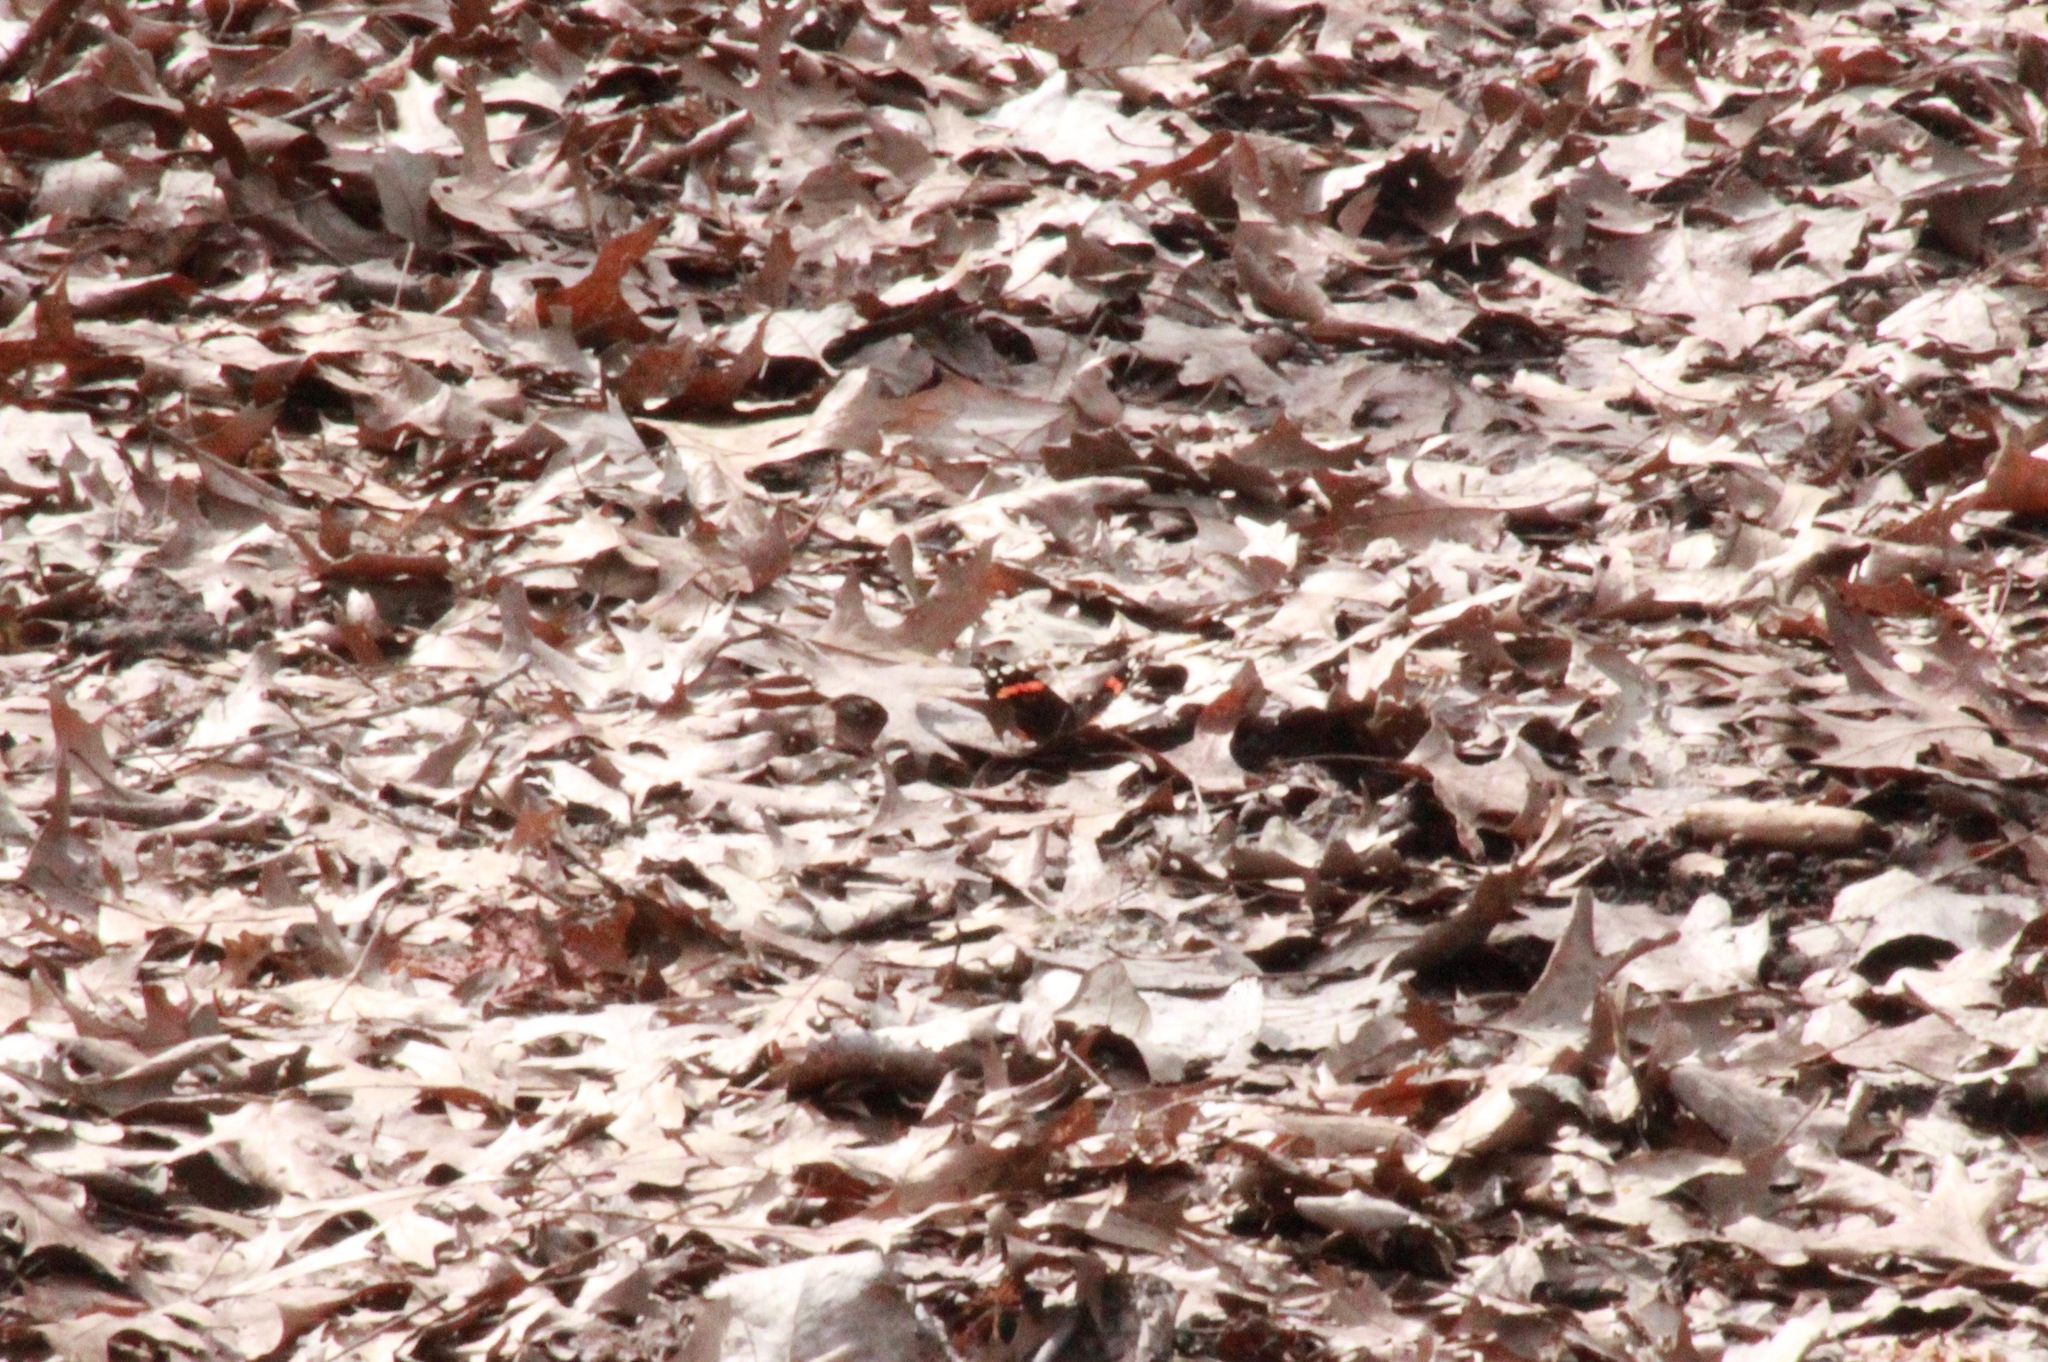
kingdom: Animalia
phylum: Arthropoda
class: Insecta
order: Lepidoptera
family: Nymphalidae
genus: Vanessa
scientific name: Vanessa atalanta
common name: Red admiral
